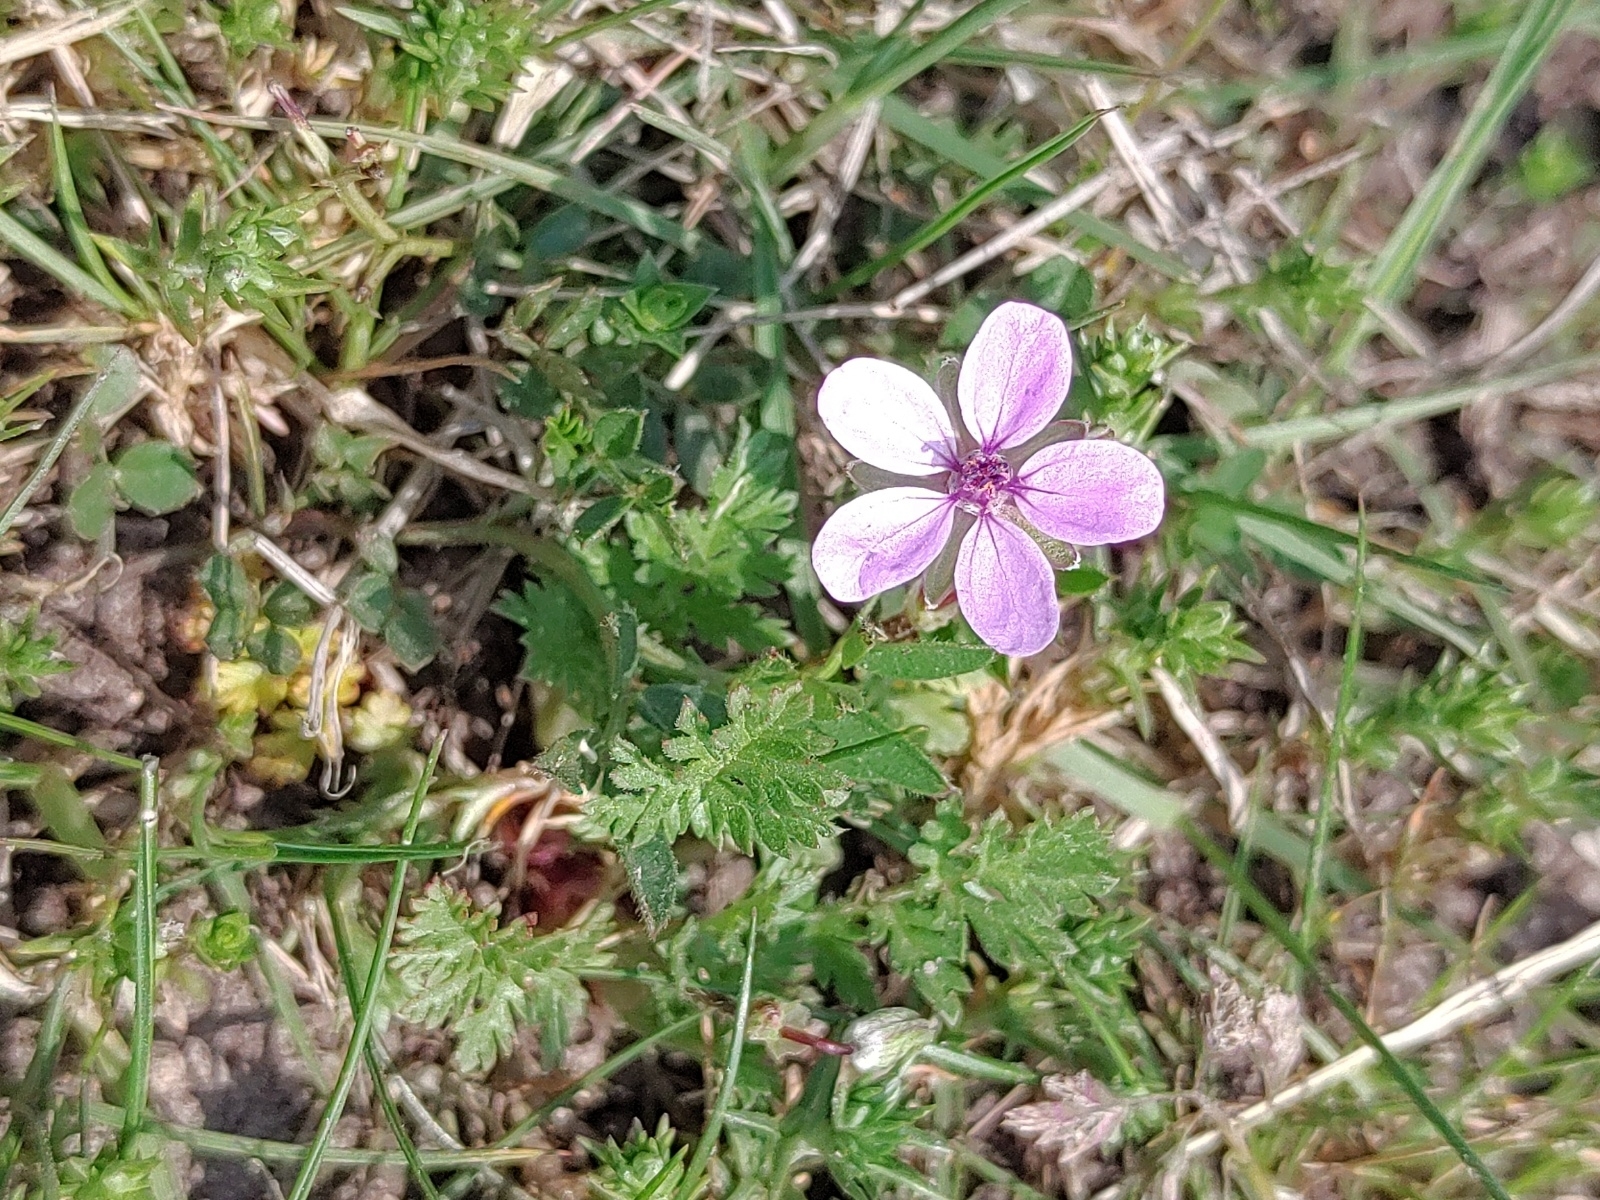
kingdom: Plantae
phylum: Tracheophyta
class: Magnoliopsida
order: Geraniales
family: Geraniaceae
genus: Erodium
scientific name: Erodium cicutarium
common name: Common stork's-bill
